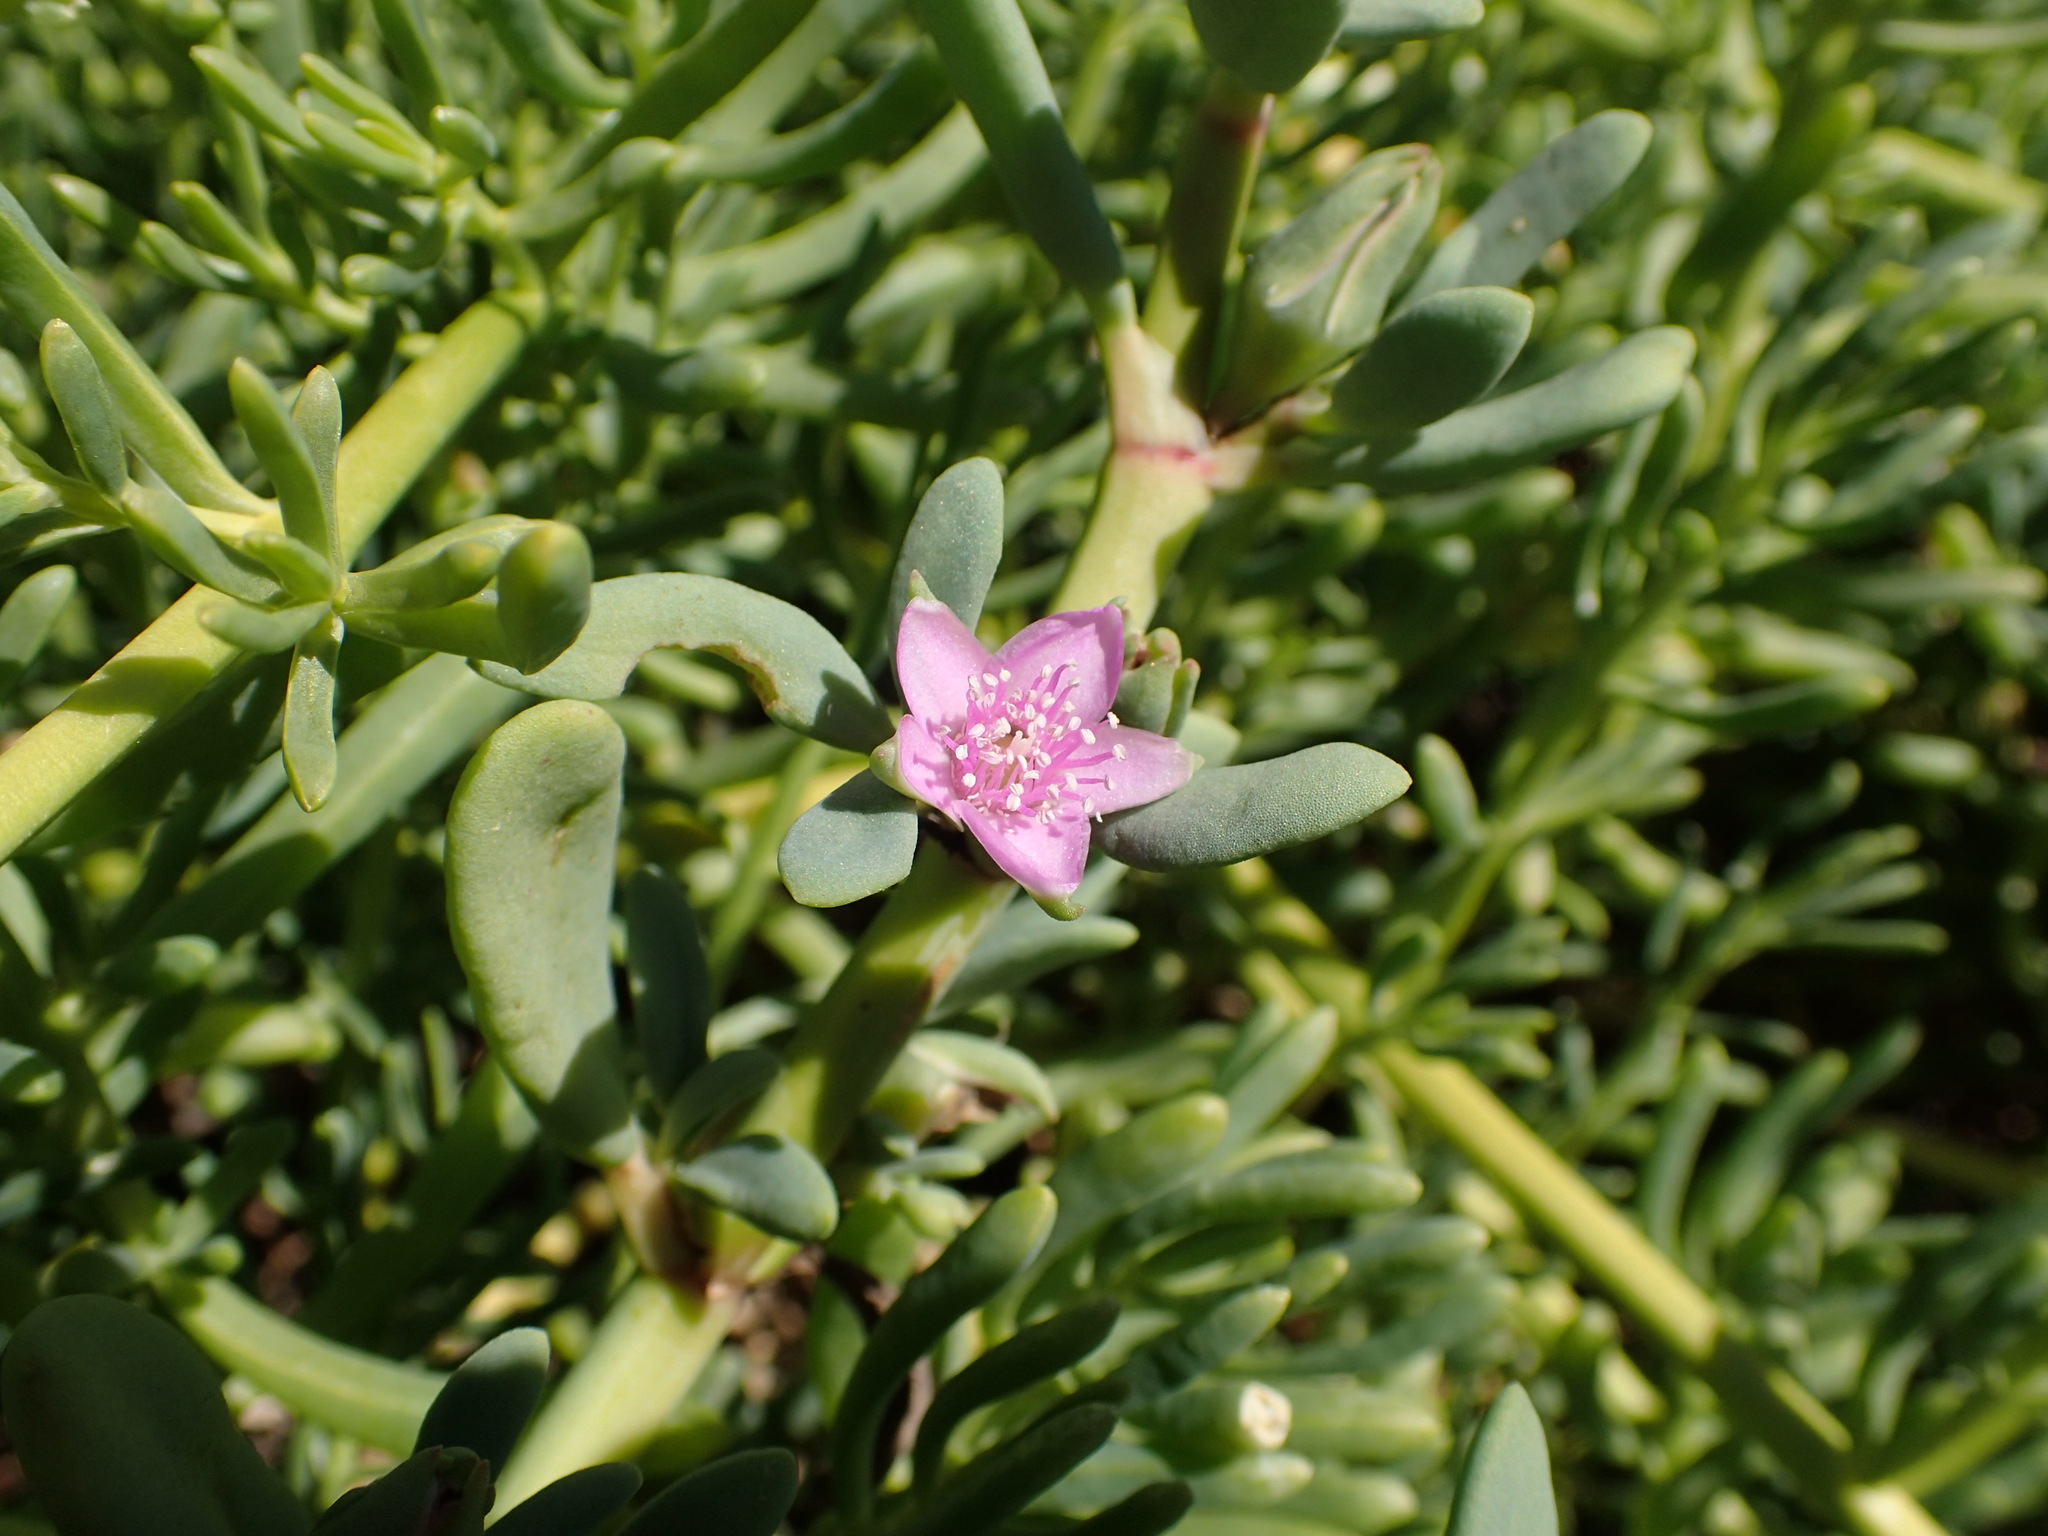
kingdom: Plantae
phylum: Tracheophyta
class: Magnoliopsida
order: Caryophyllales
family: Aizoaceae
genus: Sesuvium
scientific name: Sesuvium portulacastrum
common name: Sea-purslane
